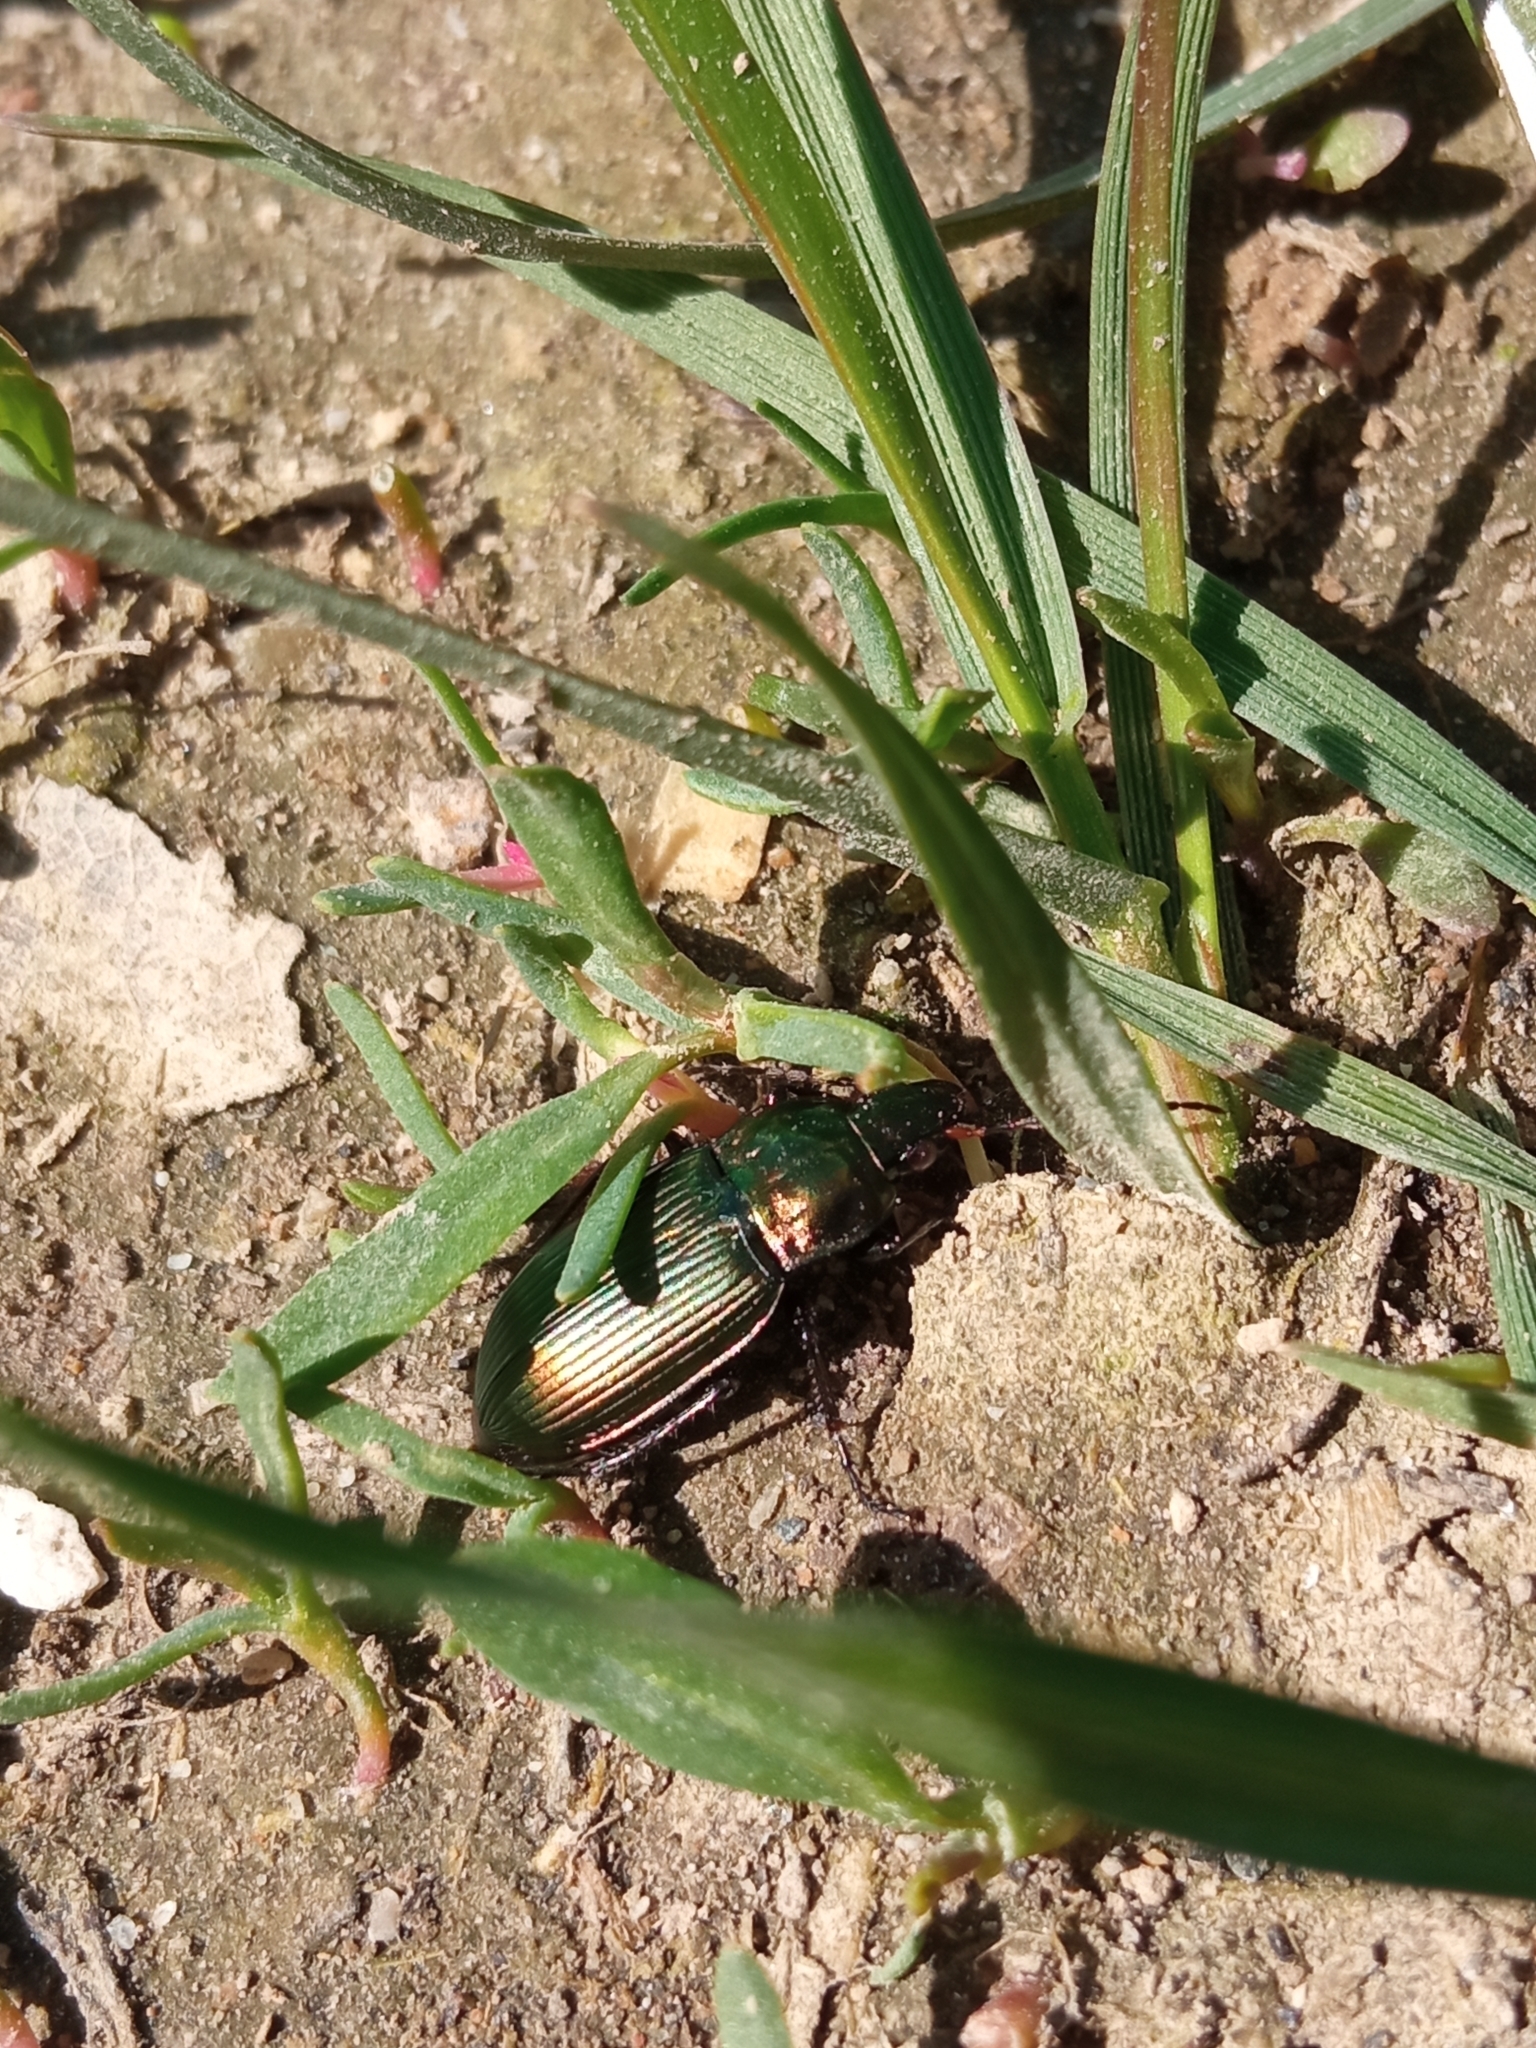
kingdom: Animalia
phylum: Arthropoda
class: Insecta
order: Coleoptera
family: Carabidae
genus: Poecilus
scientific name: Poecilus cupreus
